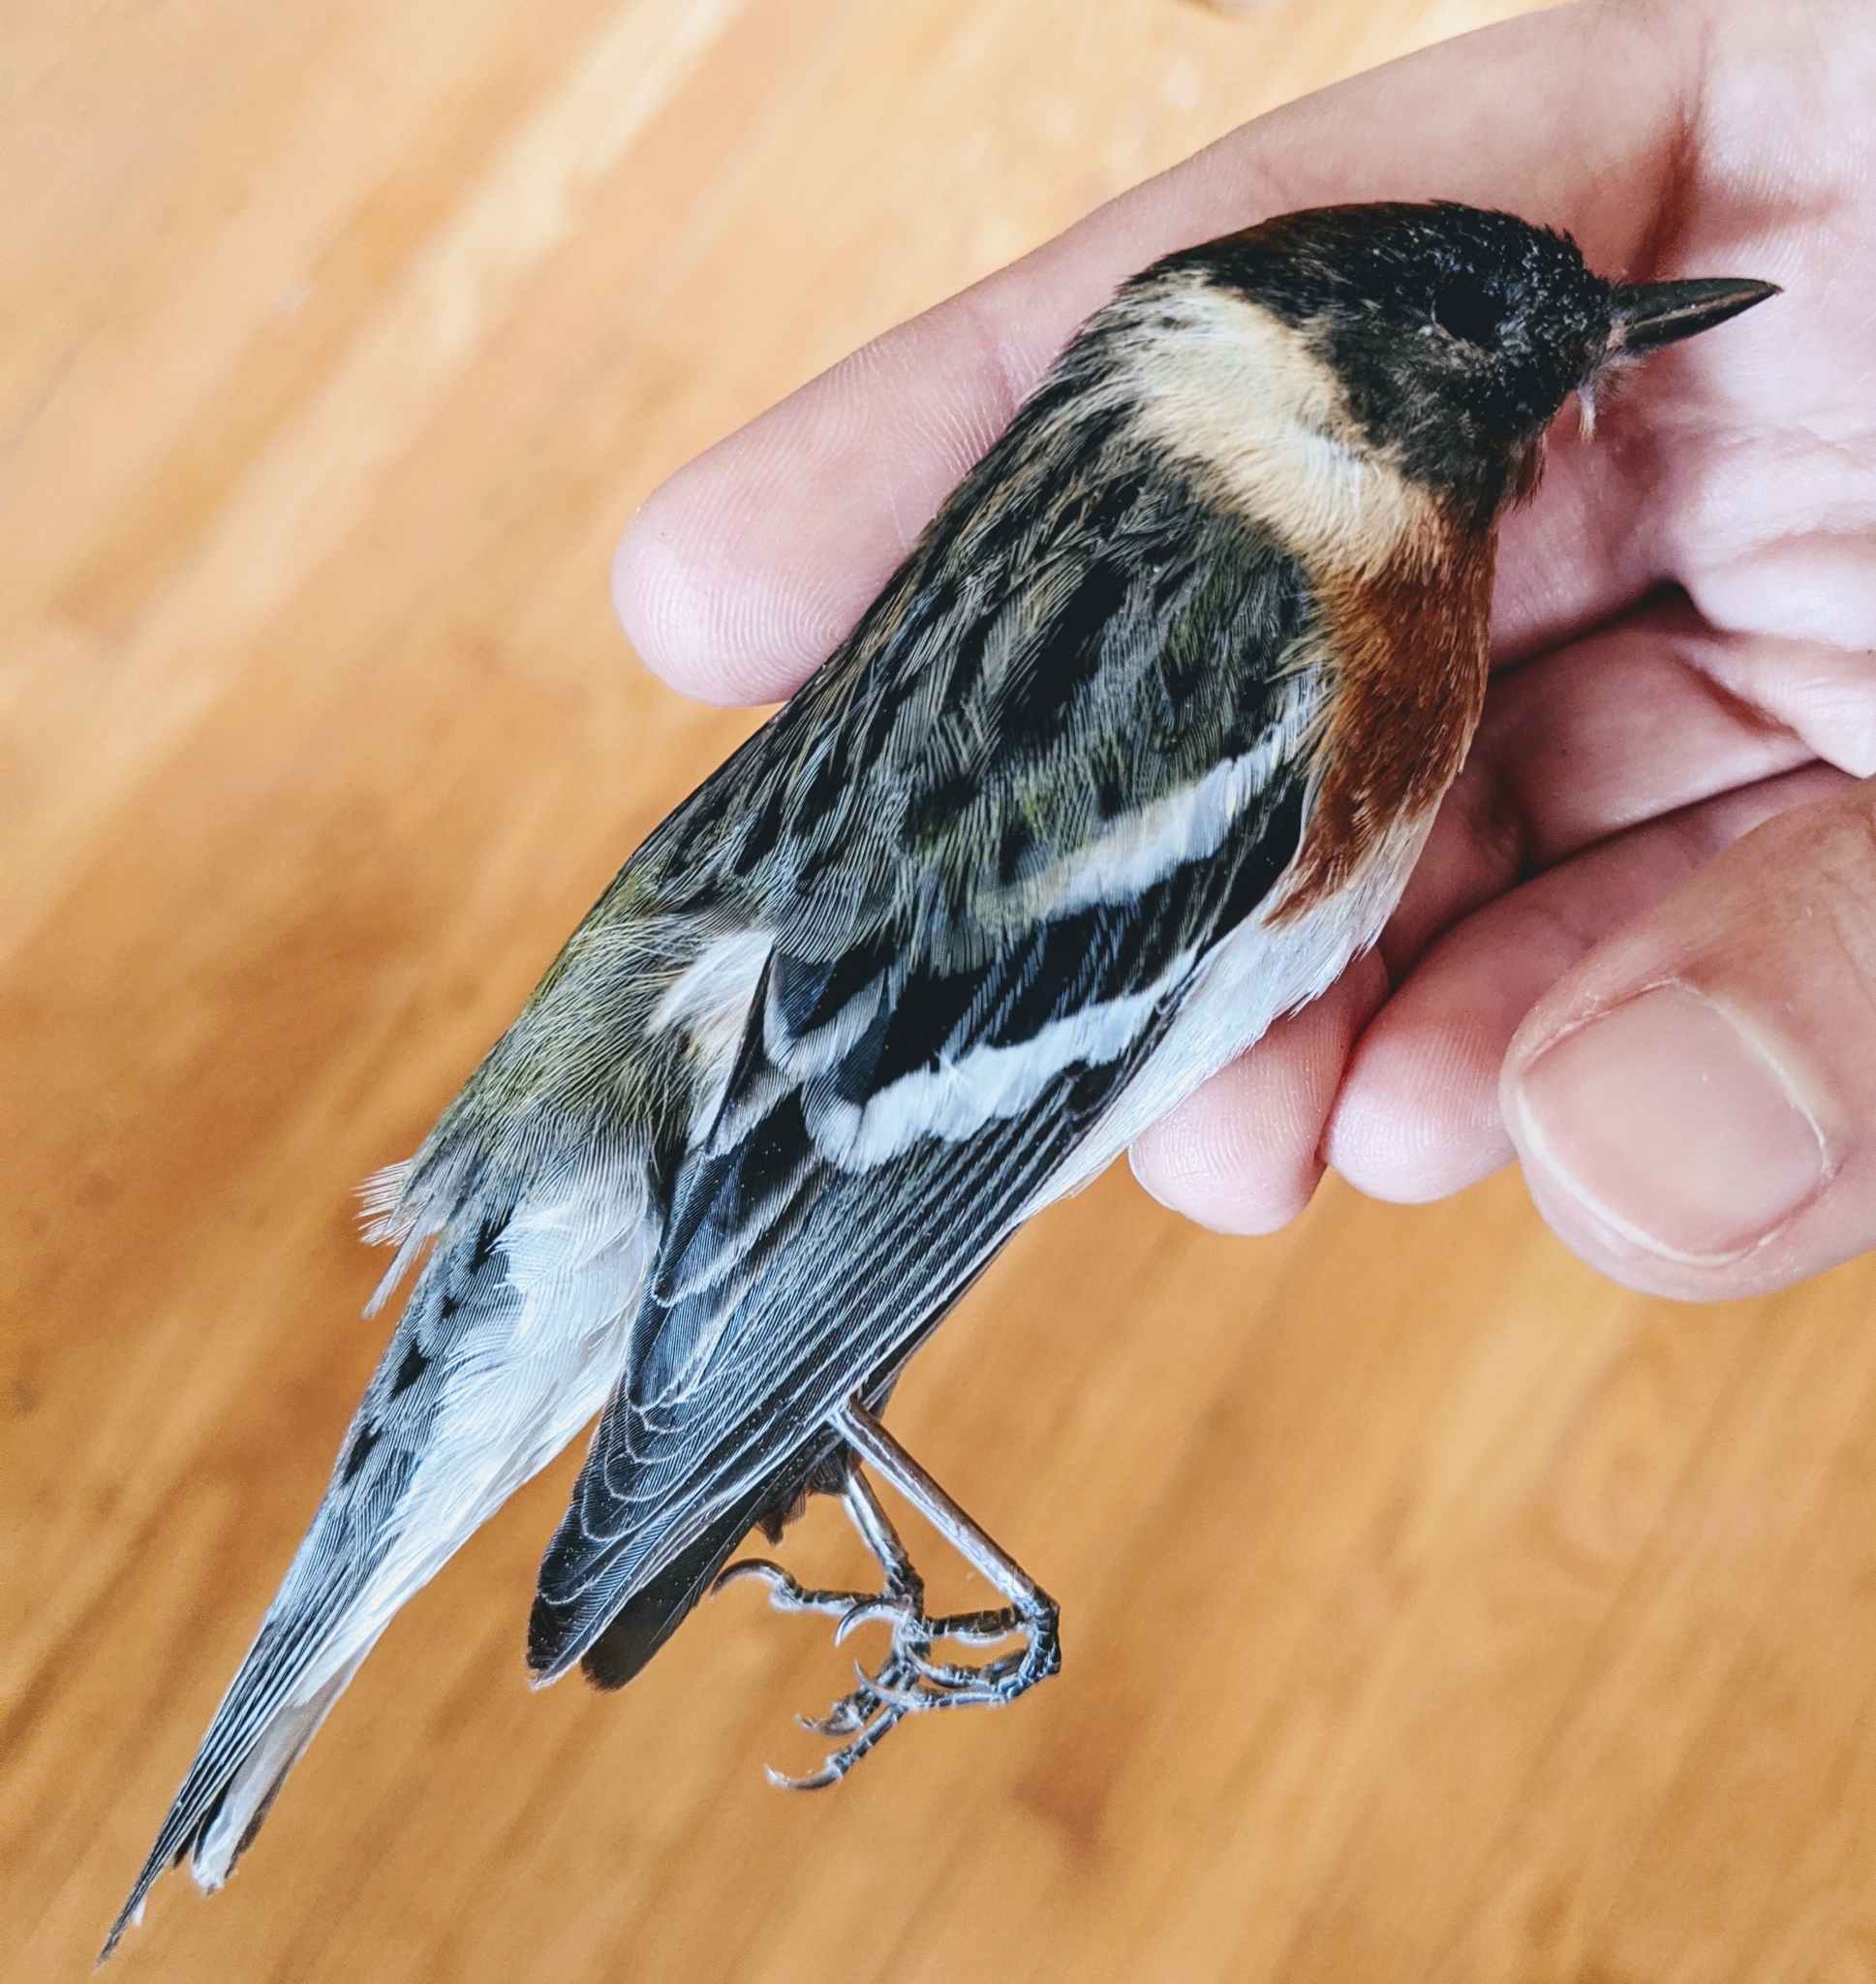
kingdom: Animalia
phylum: Chordata
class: Aves
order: Passeriformes
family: Parulidae
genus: Setophaga
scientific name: Setophaga castanea
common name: Bay-breasted warbler
